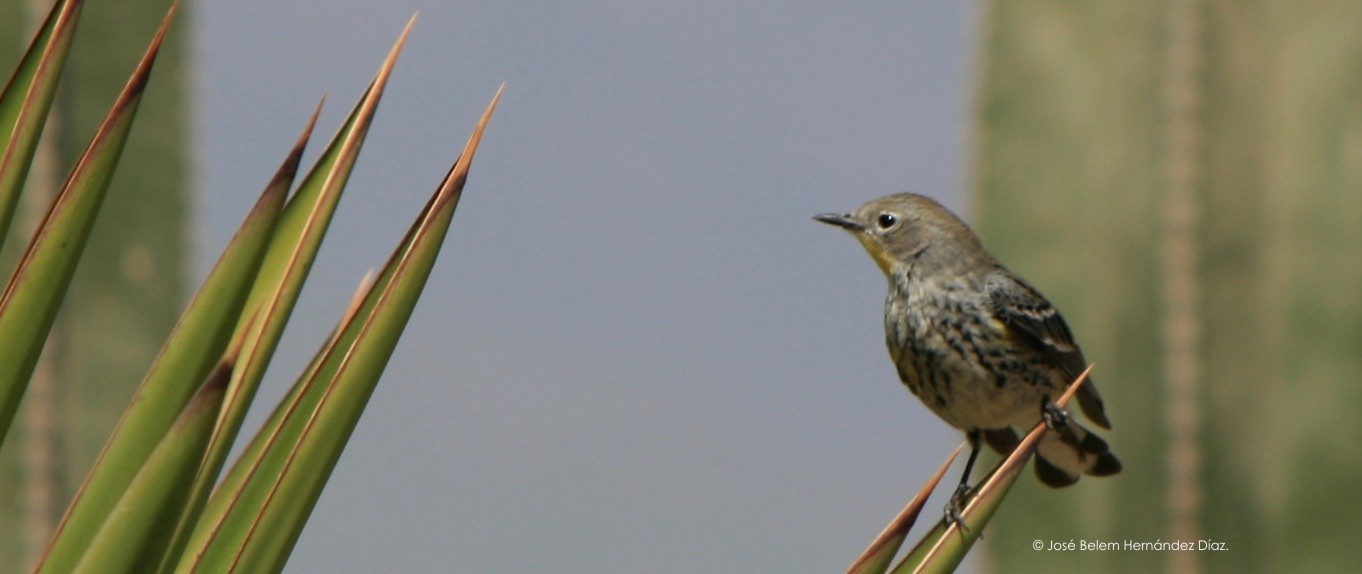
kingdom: Animalia
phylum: Chordata
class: Aves
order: Passeriformes
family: Parulidae
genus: Setophaga
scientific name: Setophaga coronata
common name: Myrtle warbler
